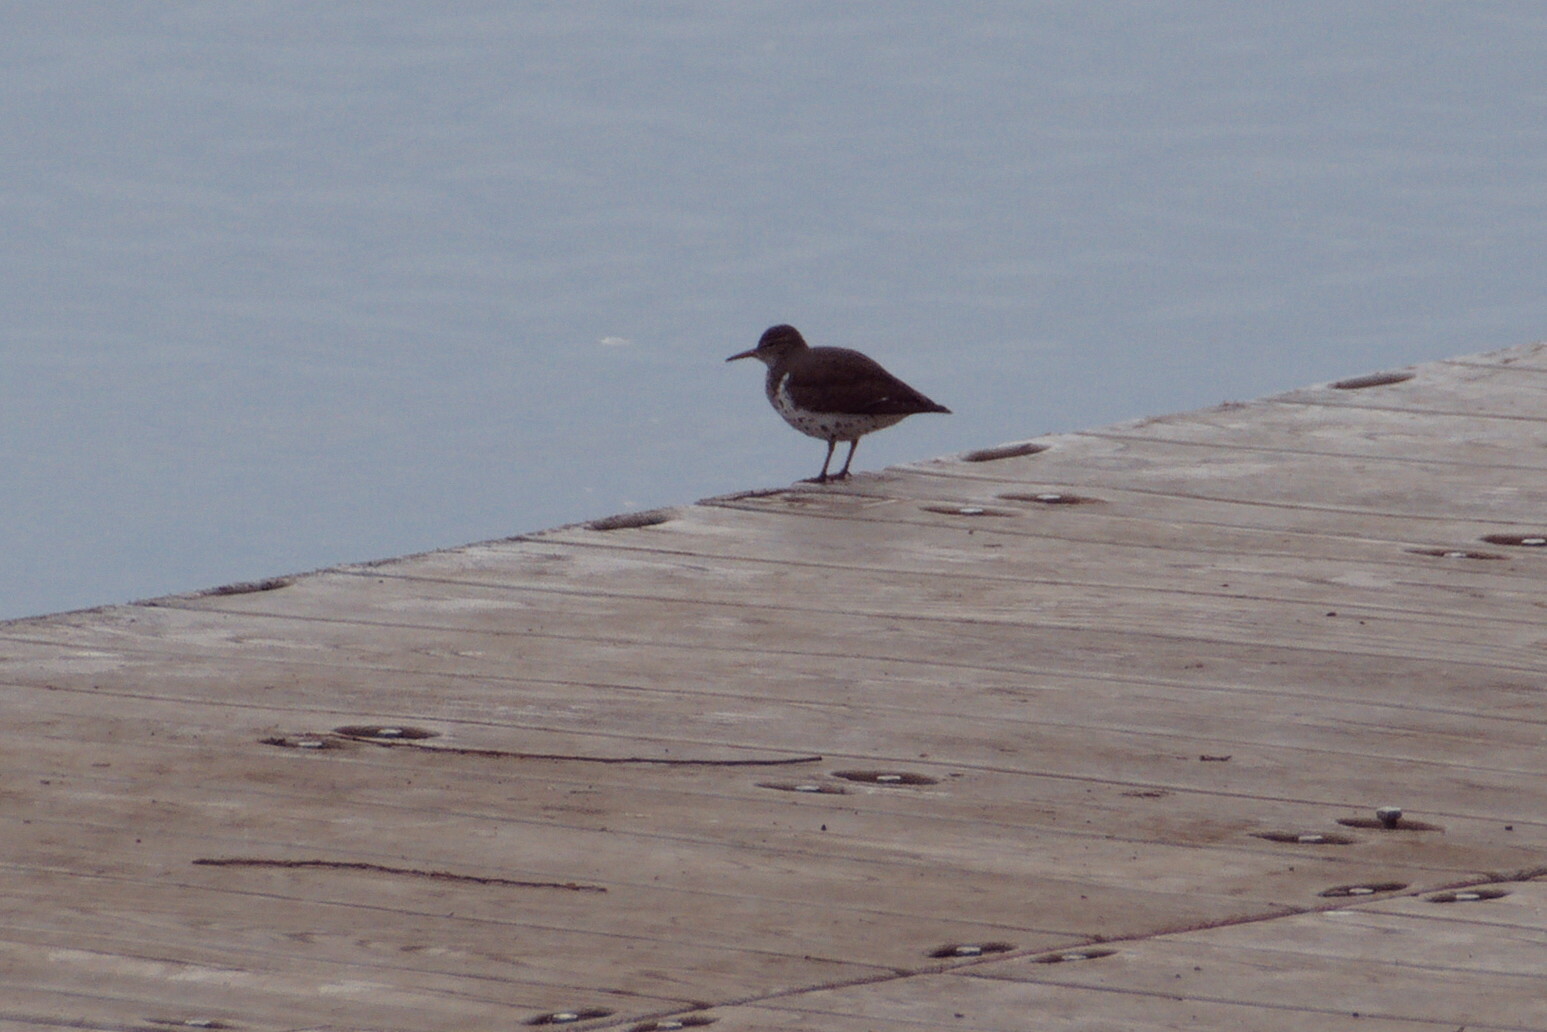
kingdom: Animalia
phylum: Chordata
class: Aves
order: Charadriiformes
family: Scolopacidae
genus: Actitis
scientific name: Actitis macularius
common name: Spotted sandpiper
